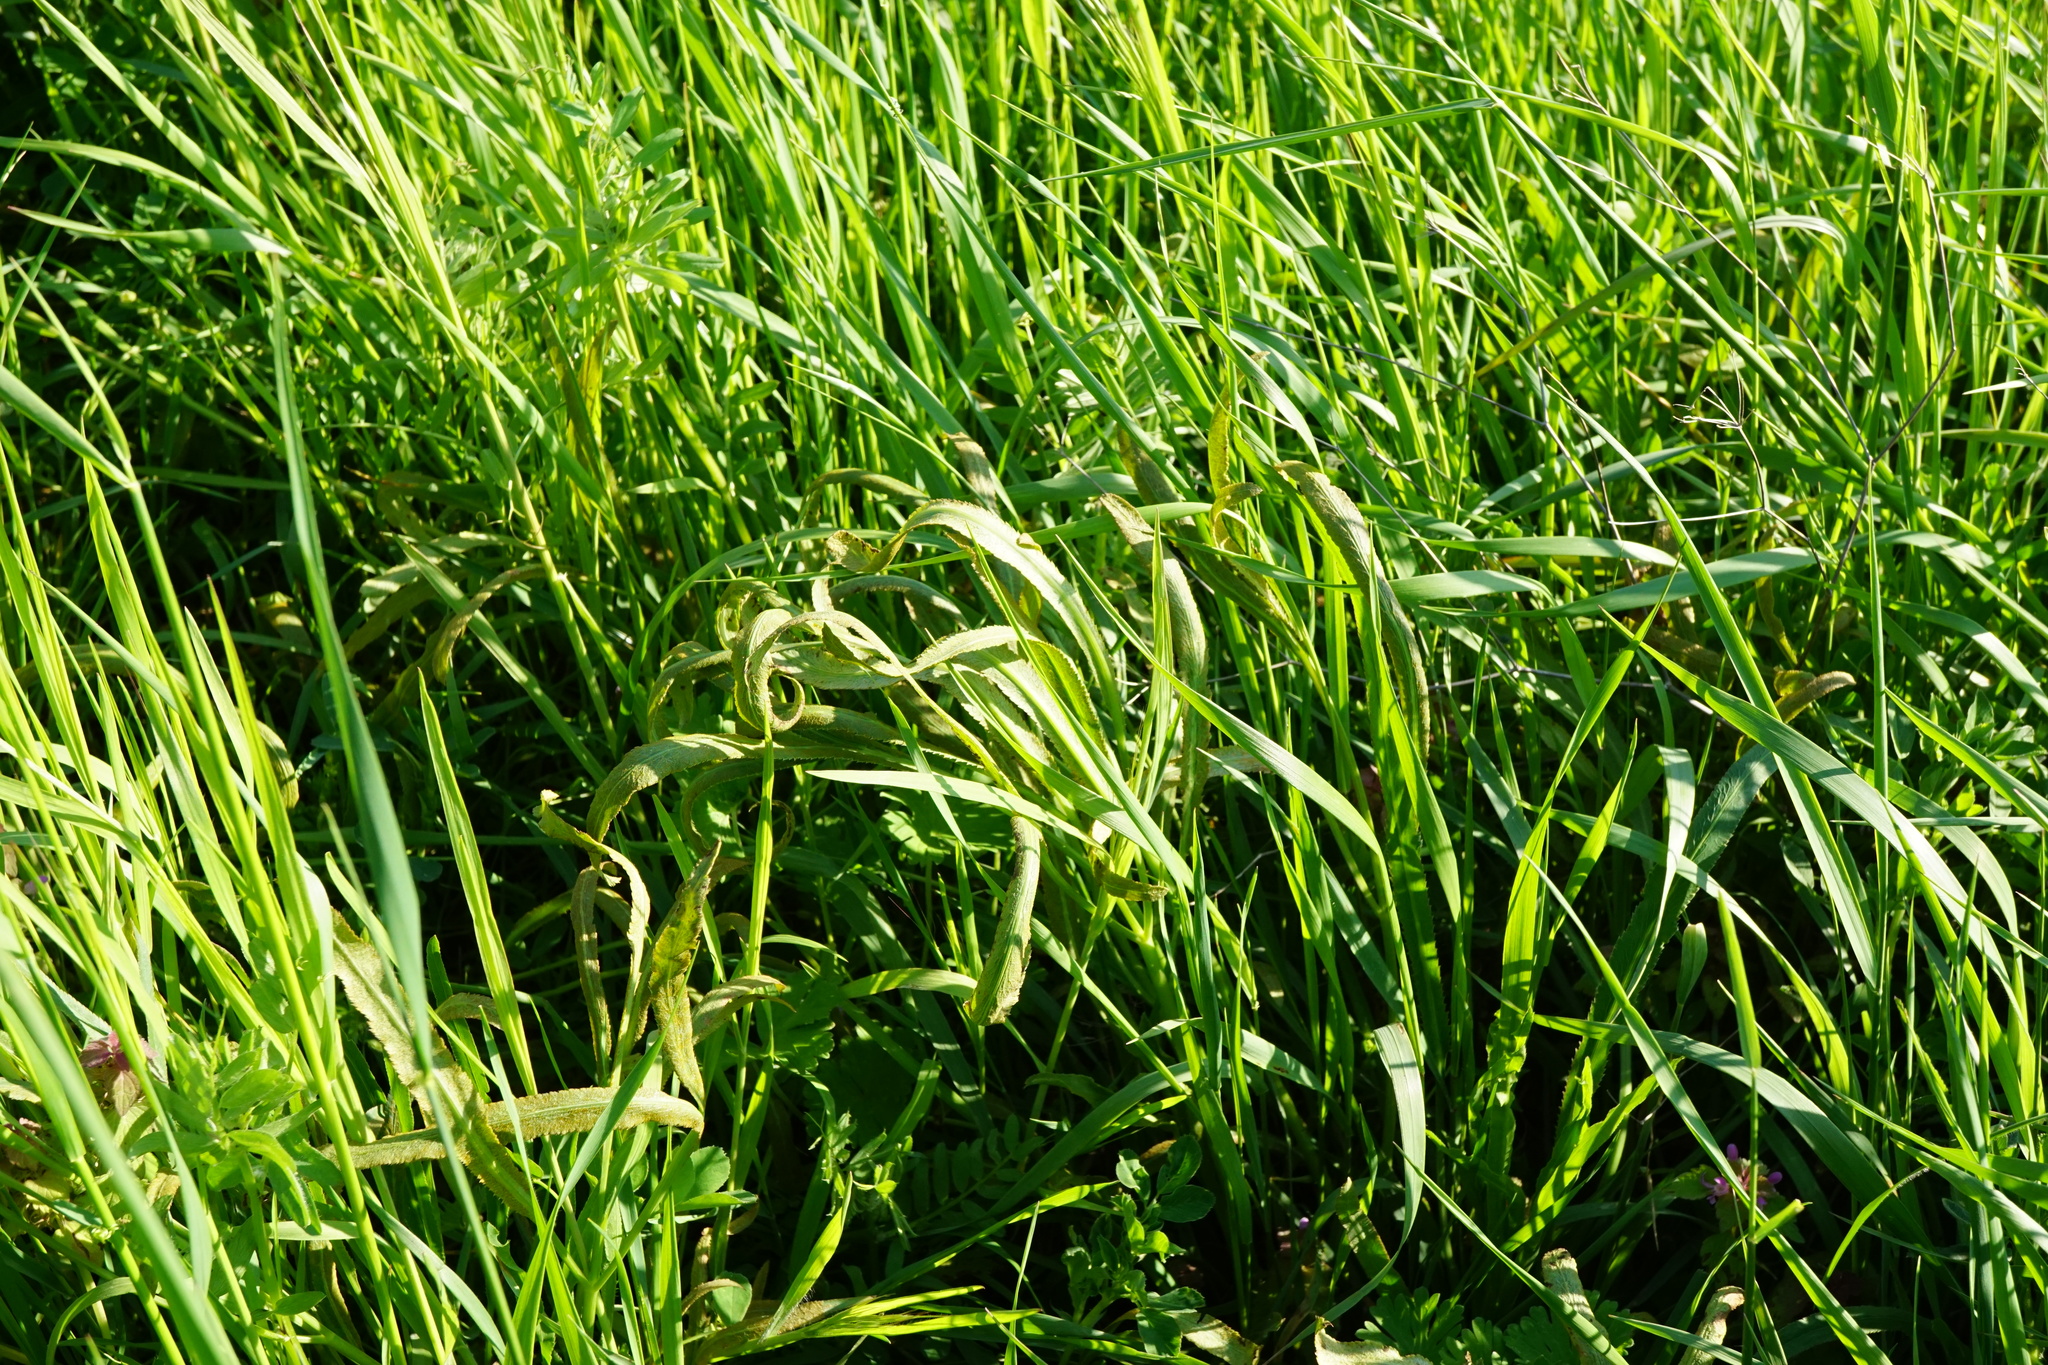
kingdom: Plantae
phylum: Tracheophyta
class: Magnoliopsida
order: Apiales
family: Apiaceae
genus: Falcaria
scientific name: Falcaria vulgaris
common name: Longleaf
